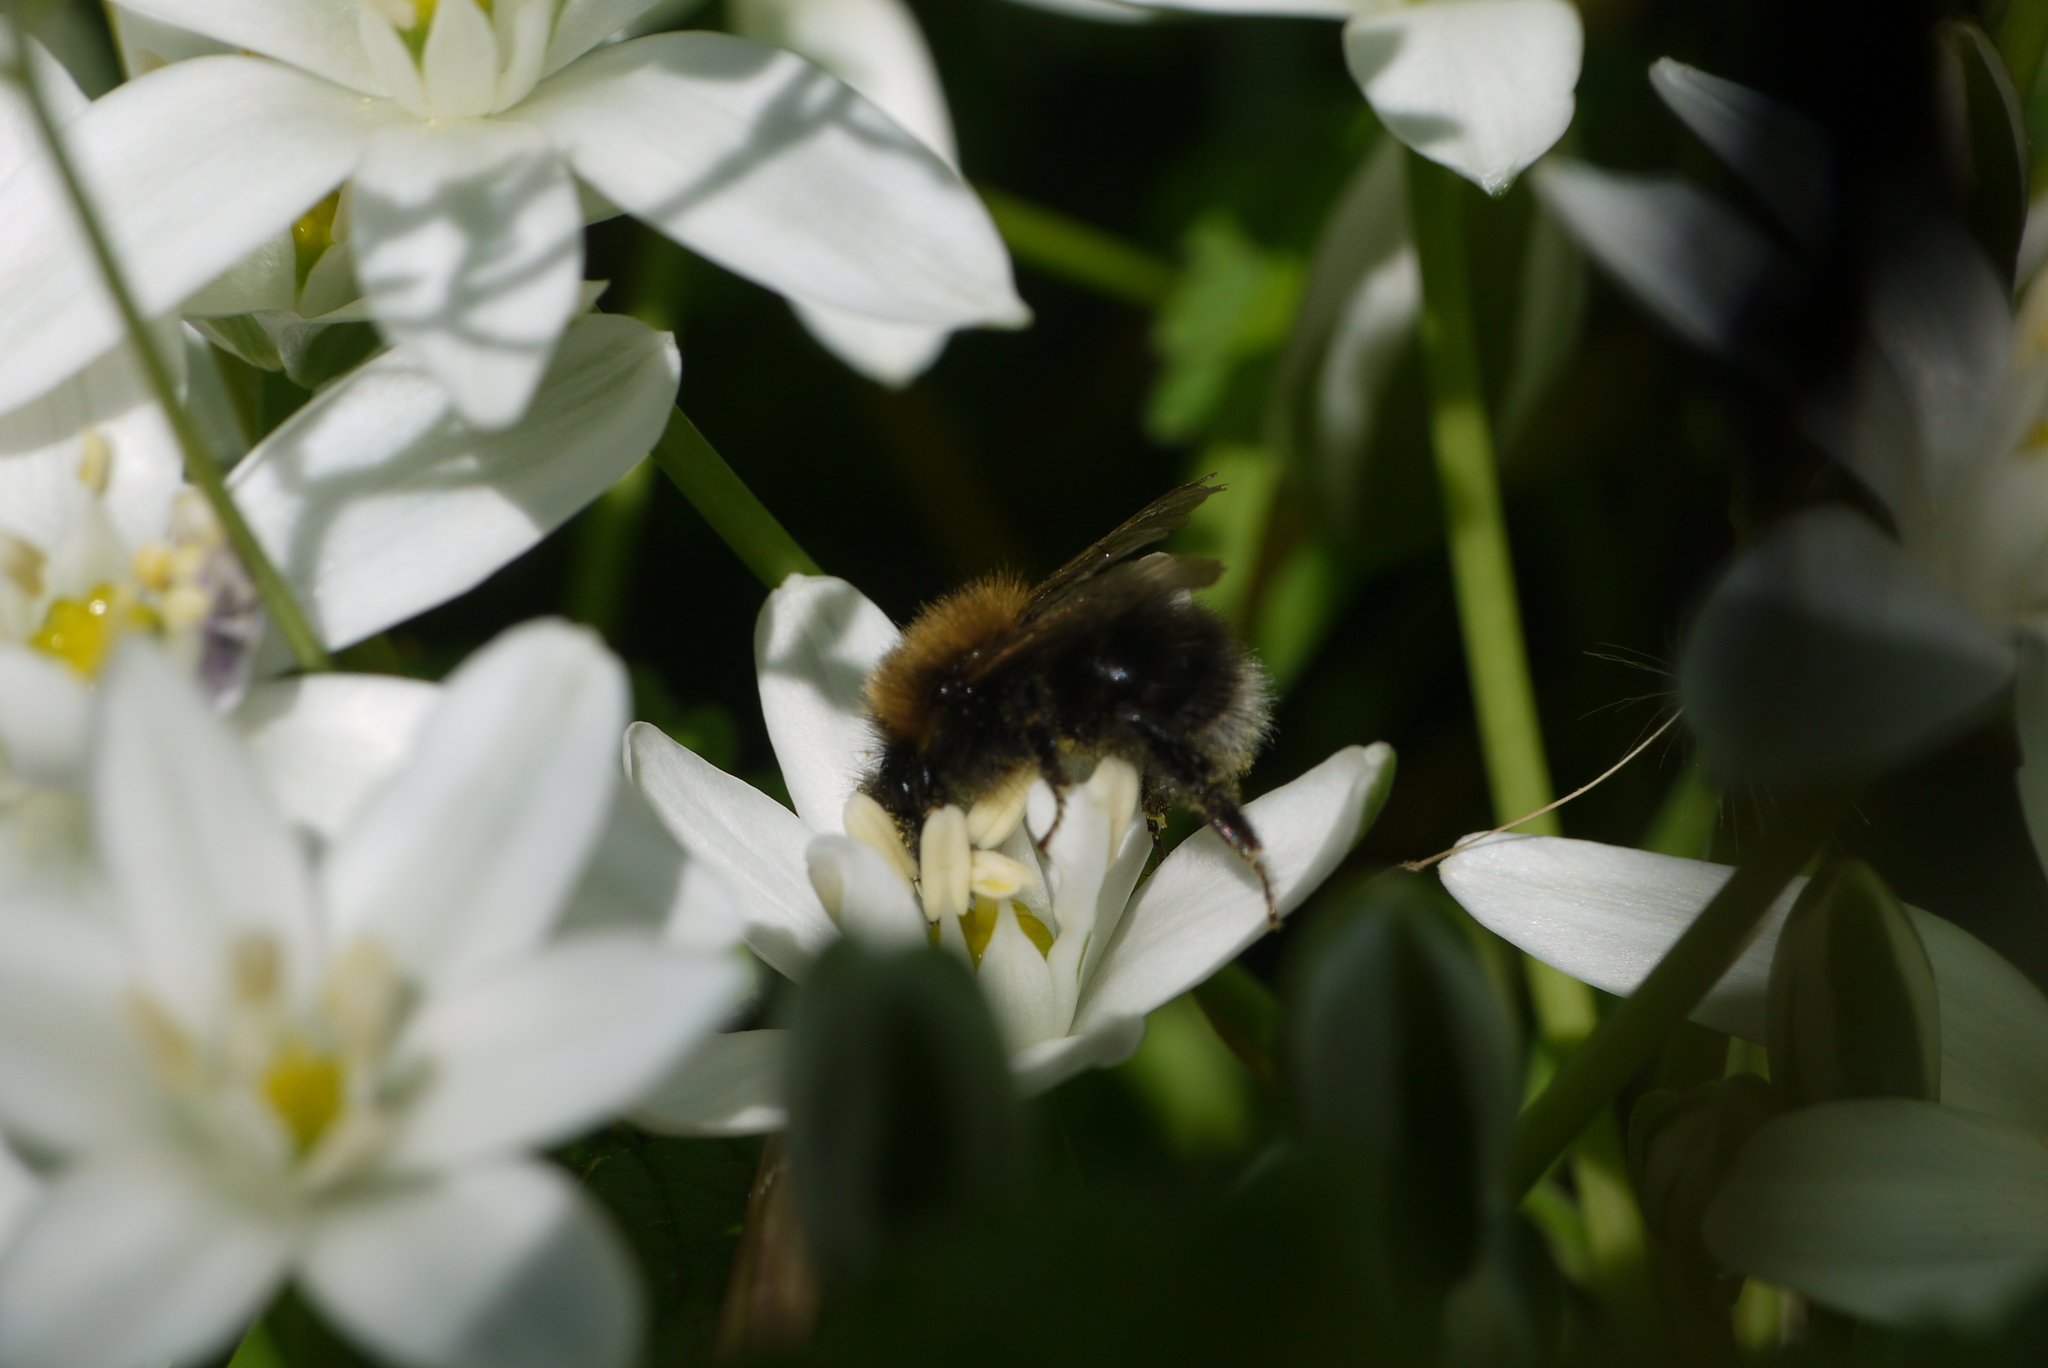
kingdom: Animalia
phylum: Arthropoda
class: Insecta
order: Hymenoptera
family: Apidae
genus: Bombus
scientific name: Bombus hypnorum
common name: New garden bumblebee
